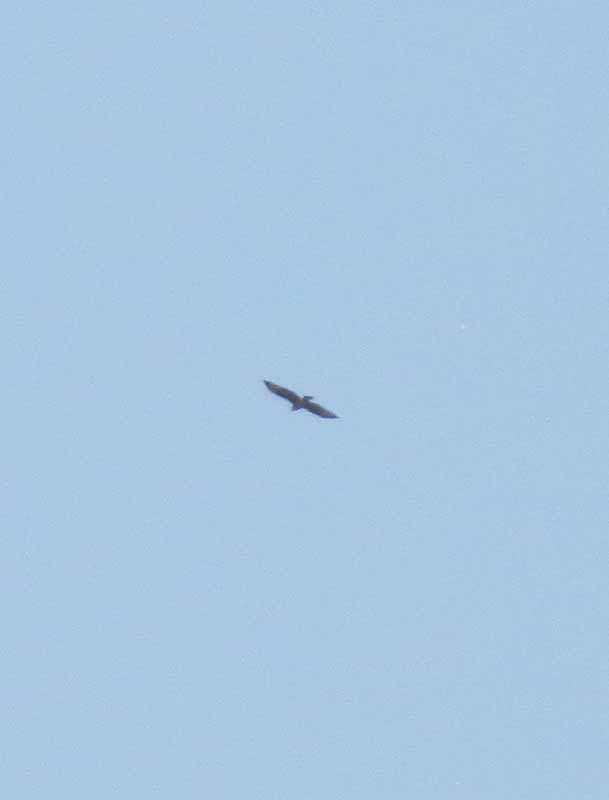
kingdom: Animalia
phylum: Chordata
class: Aves
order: Accipitriformes
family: Accipitridae
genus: Accipiter
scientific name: Accipiter cooperii
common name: Cooper's hawk
